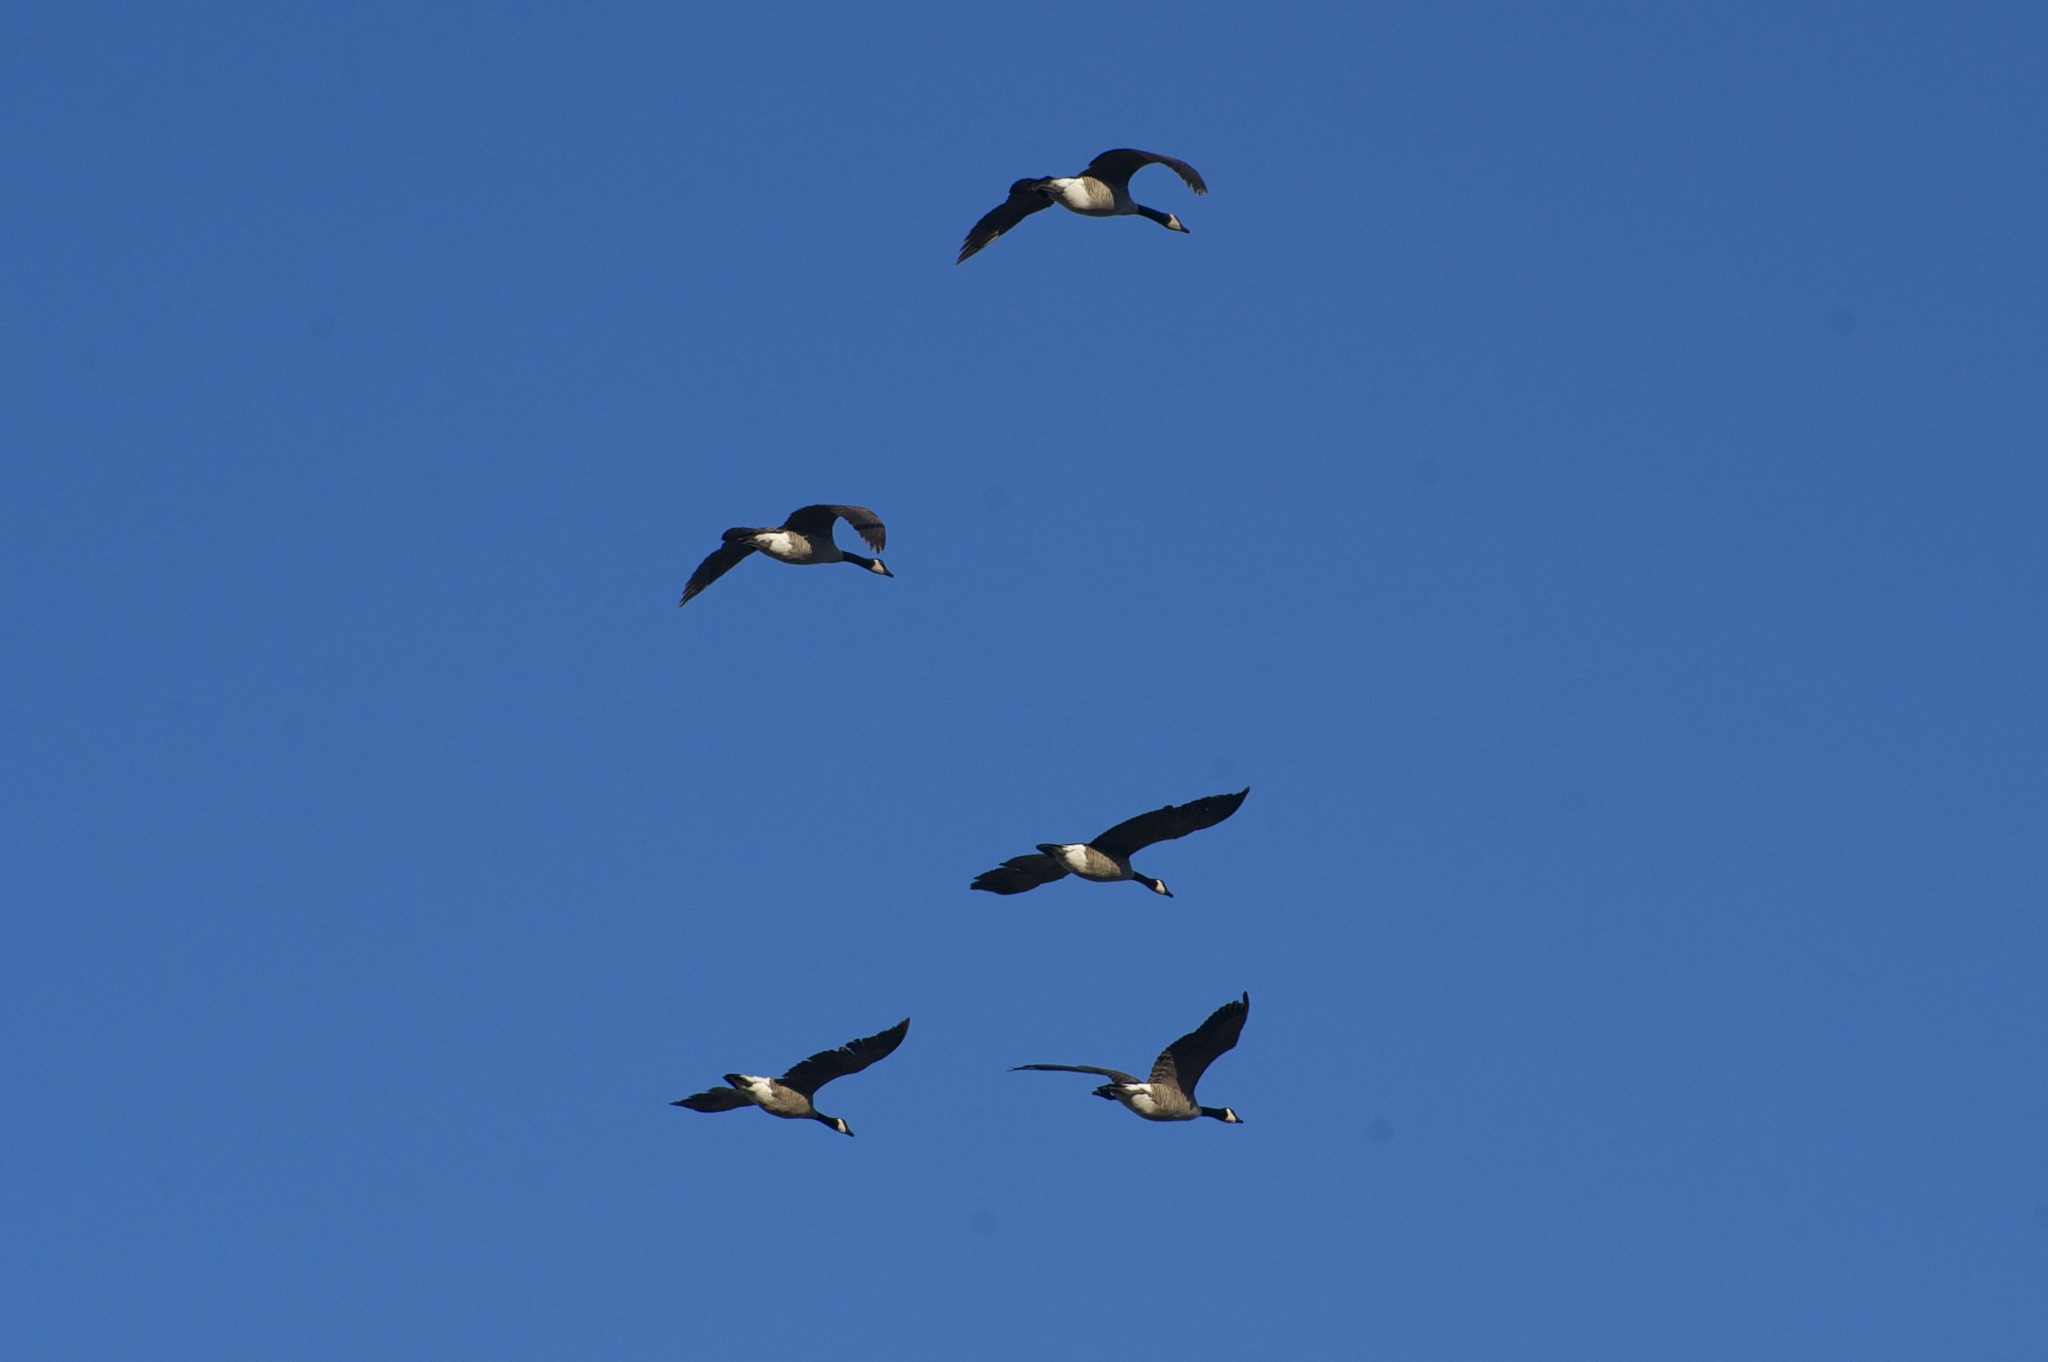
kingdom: Animalia
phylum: Chordata
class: Aves
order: Anseriformes
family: Anatidae
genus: Branta
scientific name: Branta canadensis
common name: Canada goose
